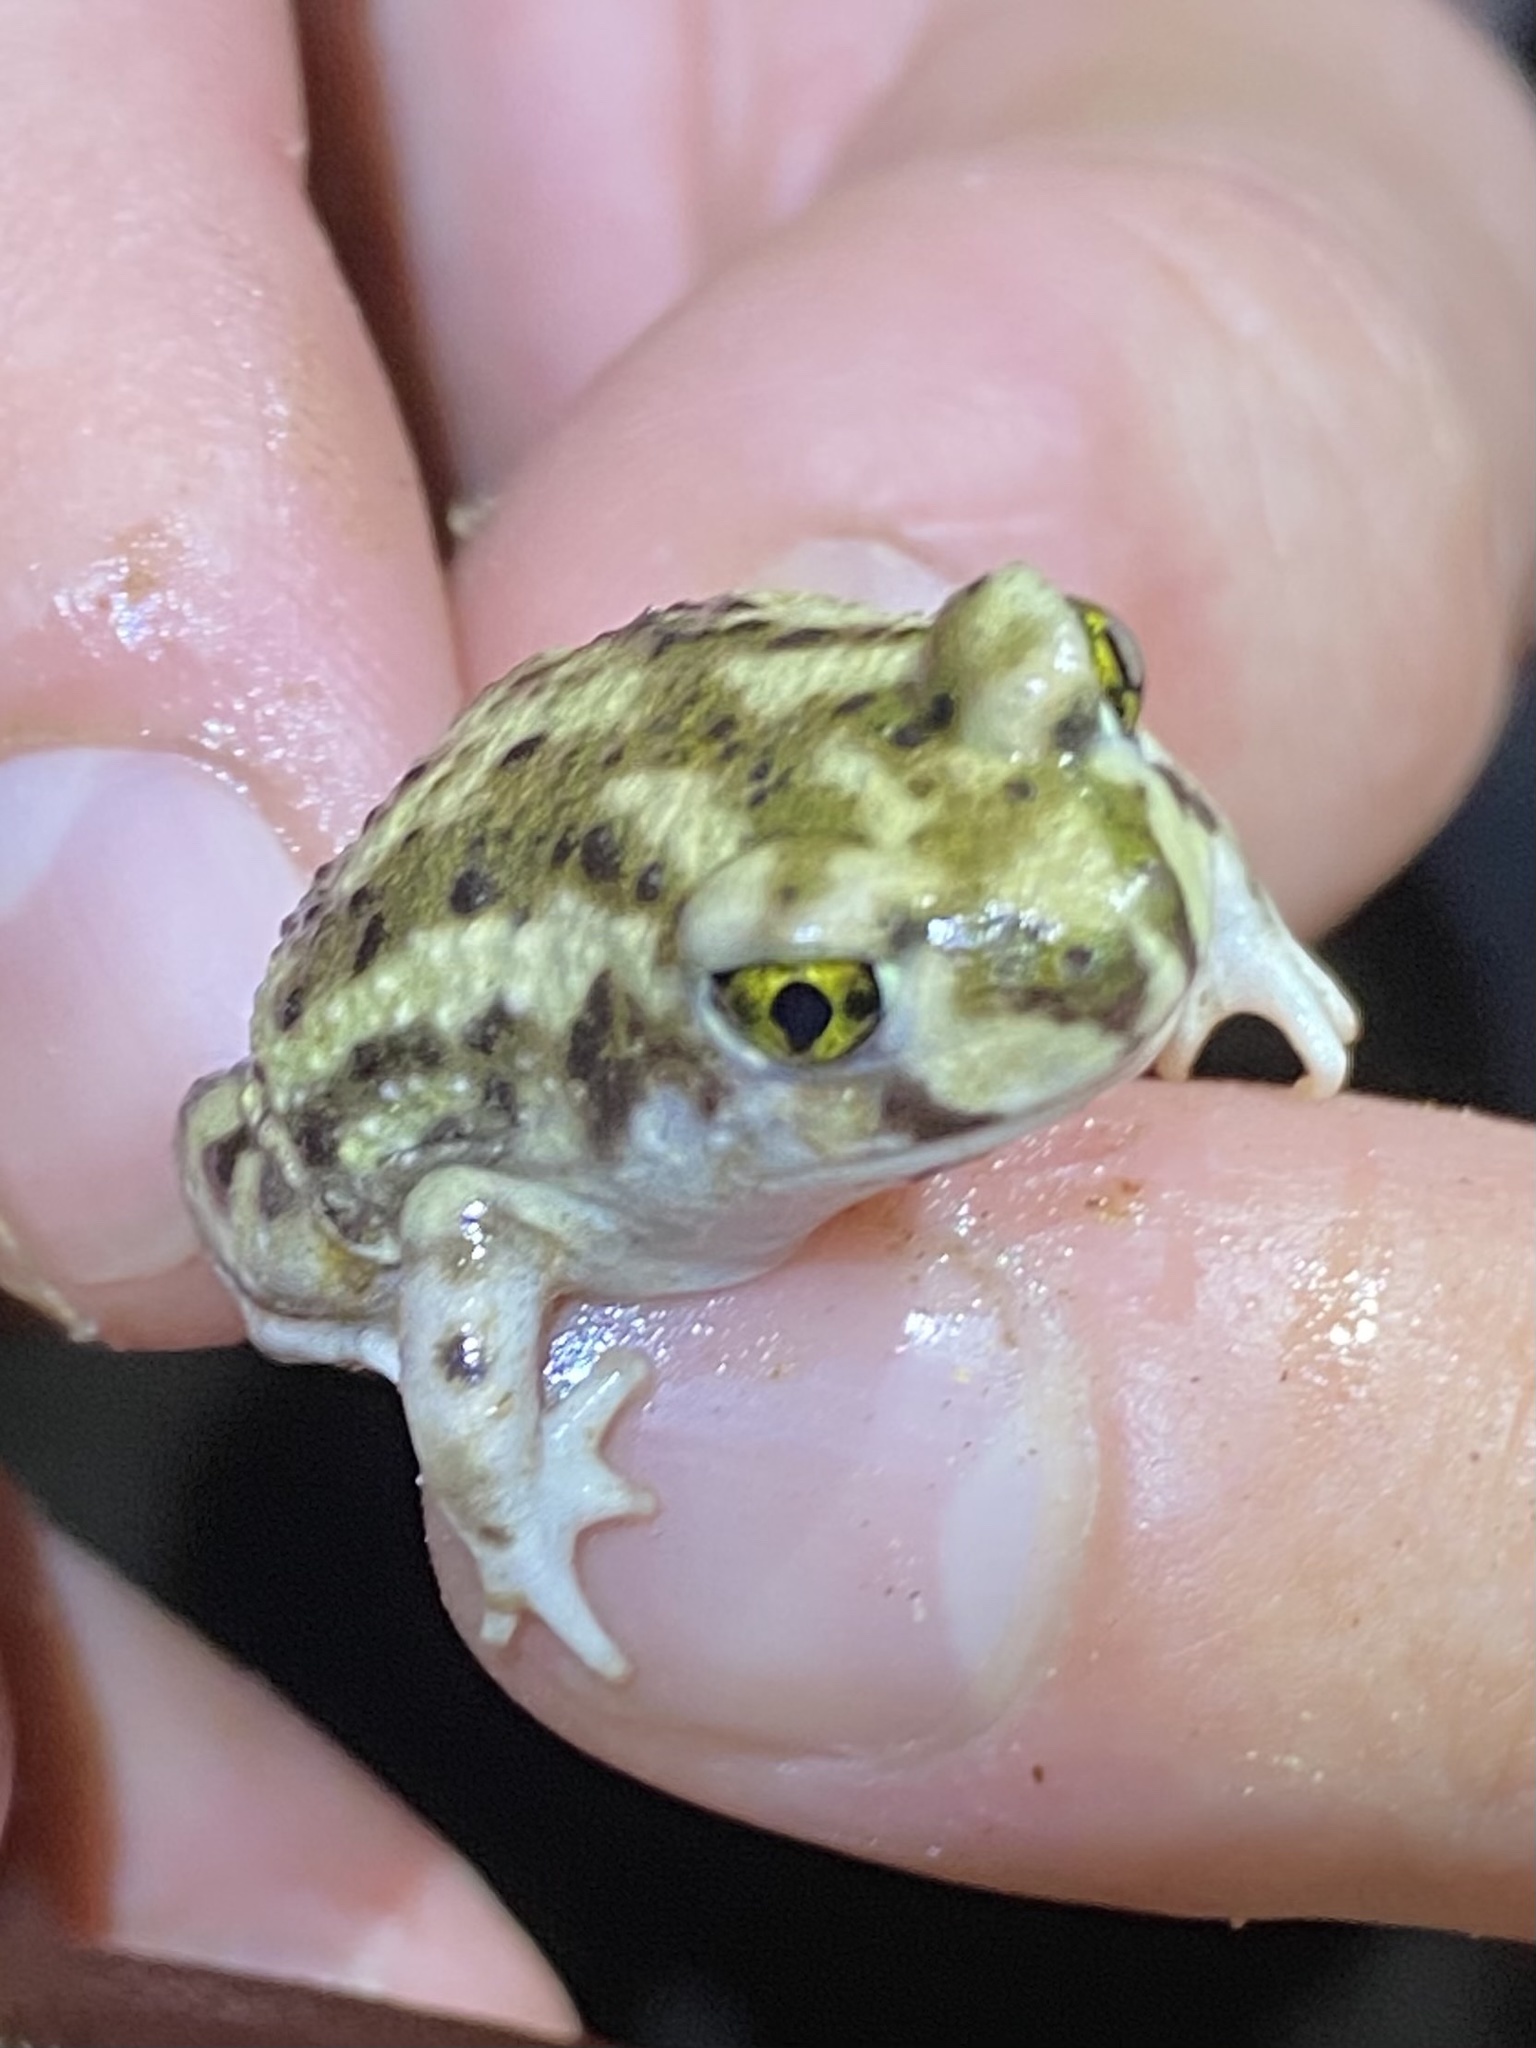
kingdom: Animalia
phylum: Chordata
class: Amphibia
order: Anura
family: Scaphiopodidae
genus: Scaphiopus
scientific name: Scaphiopus couchii
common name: Couch's spadefoot toad
